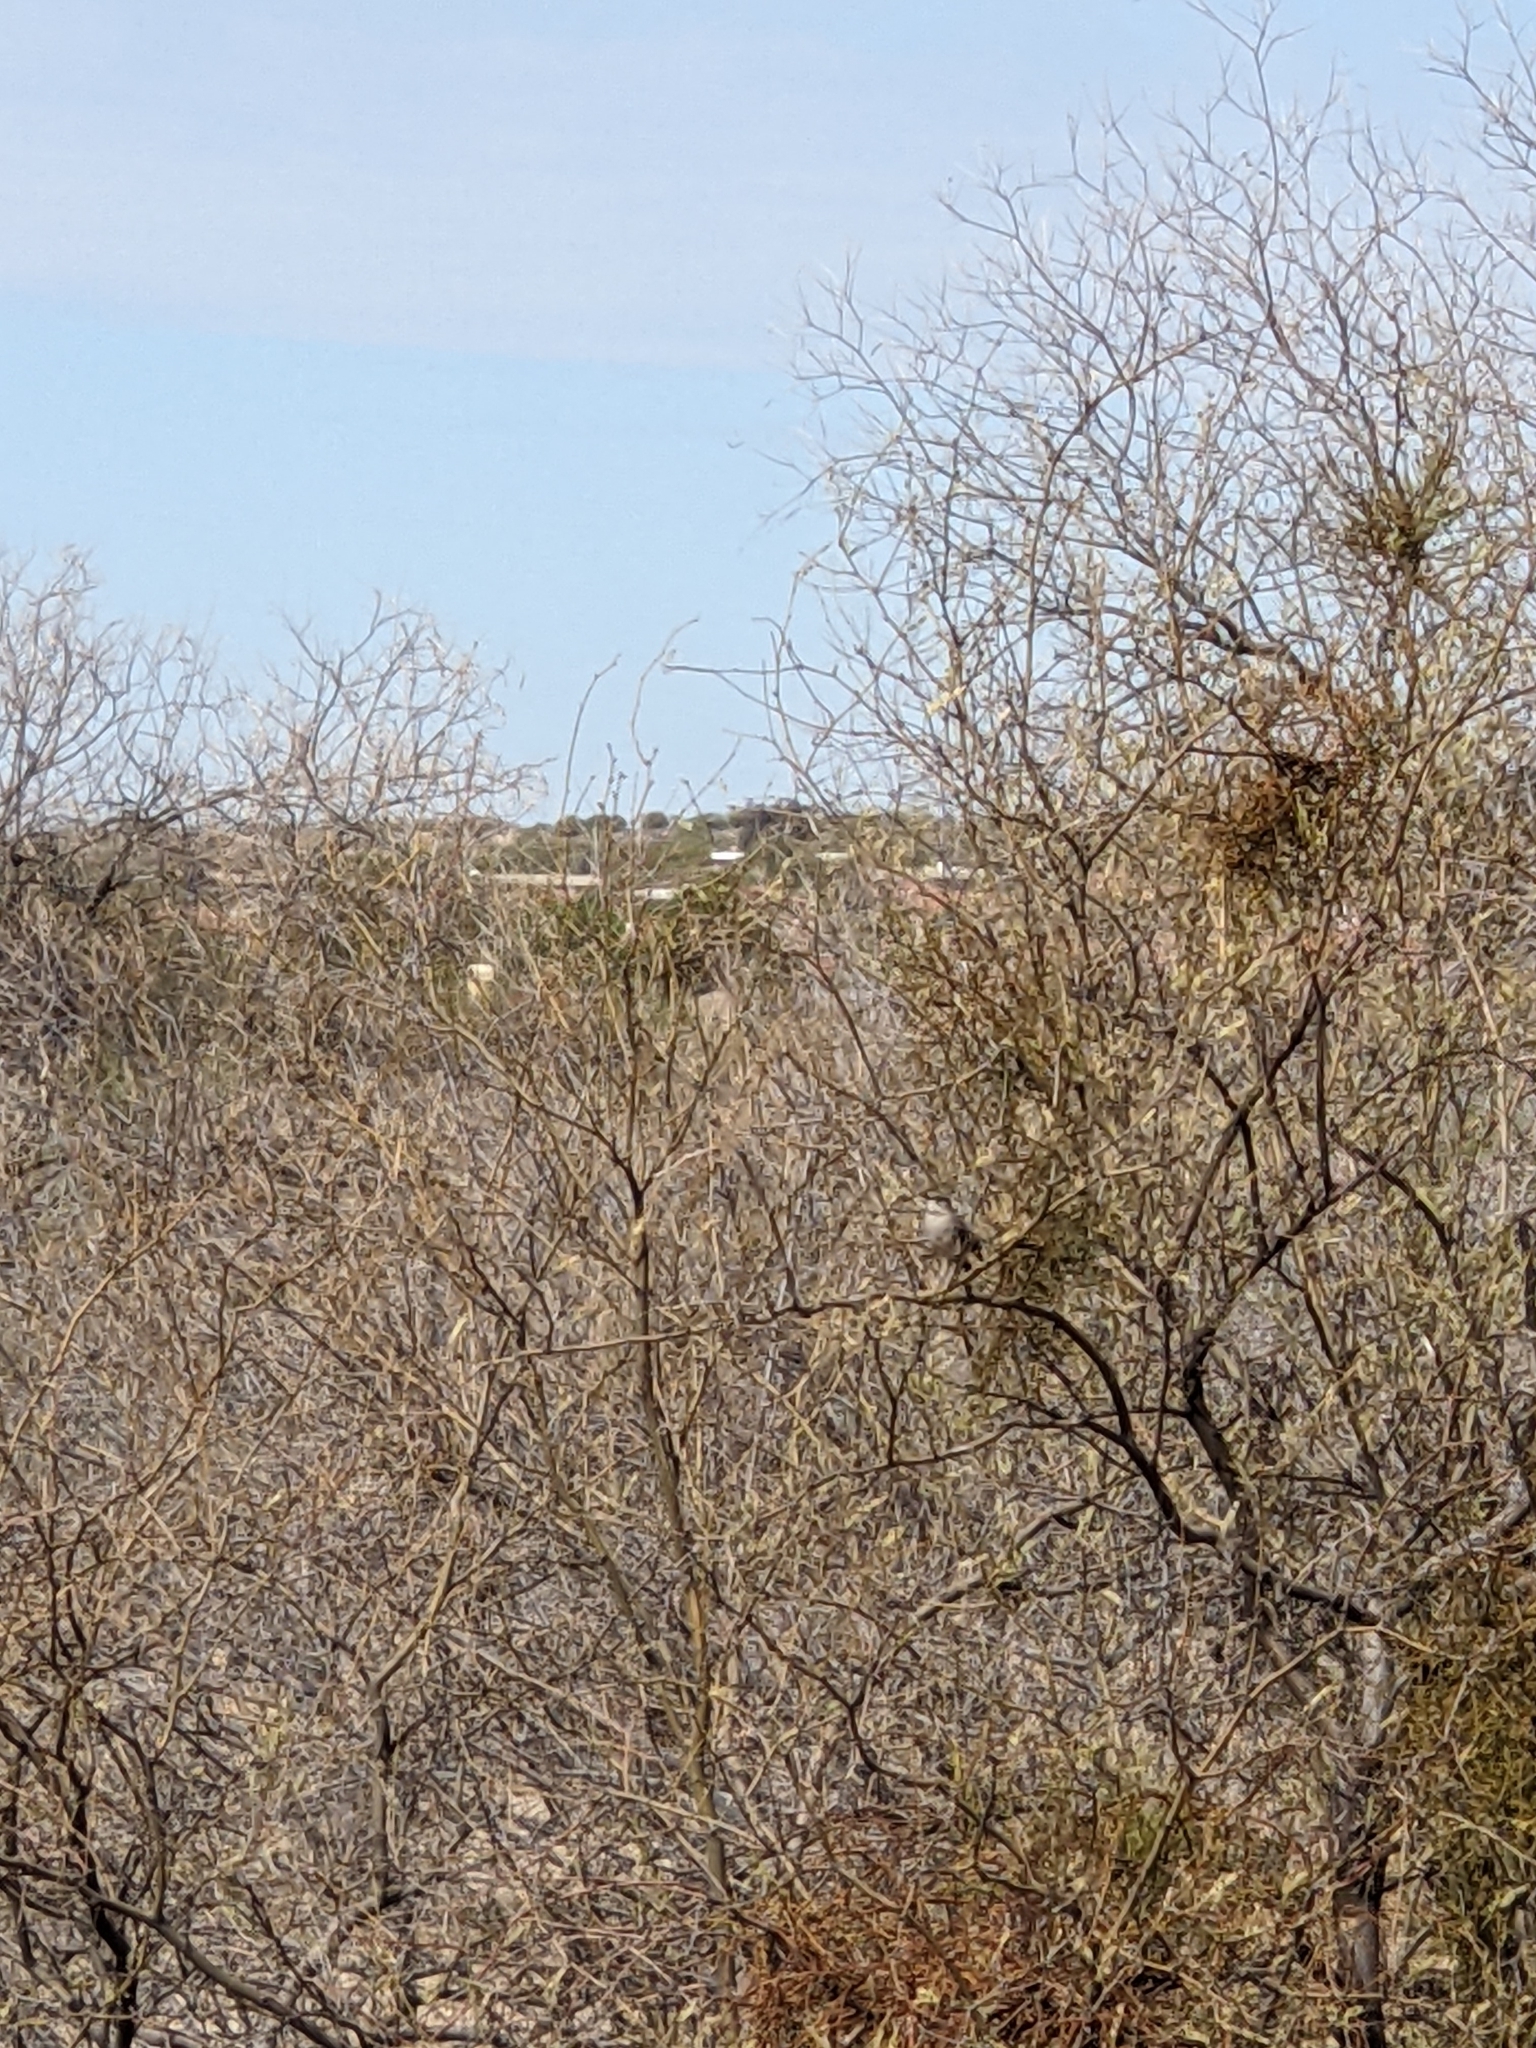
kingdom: Animalia
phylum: Chordata
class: Aves
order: Passeriformes
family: Mimidae
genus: Mimus
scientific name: Mimus polyglottos
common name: Northern mockingbird
